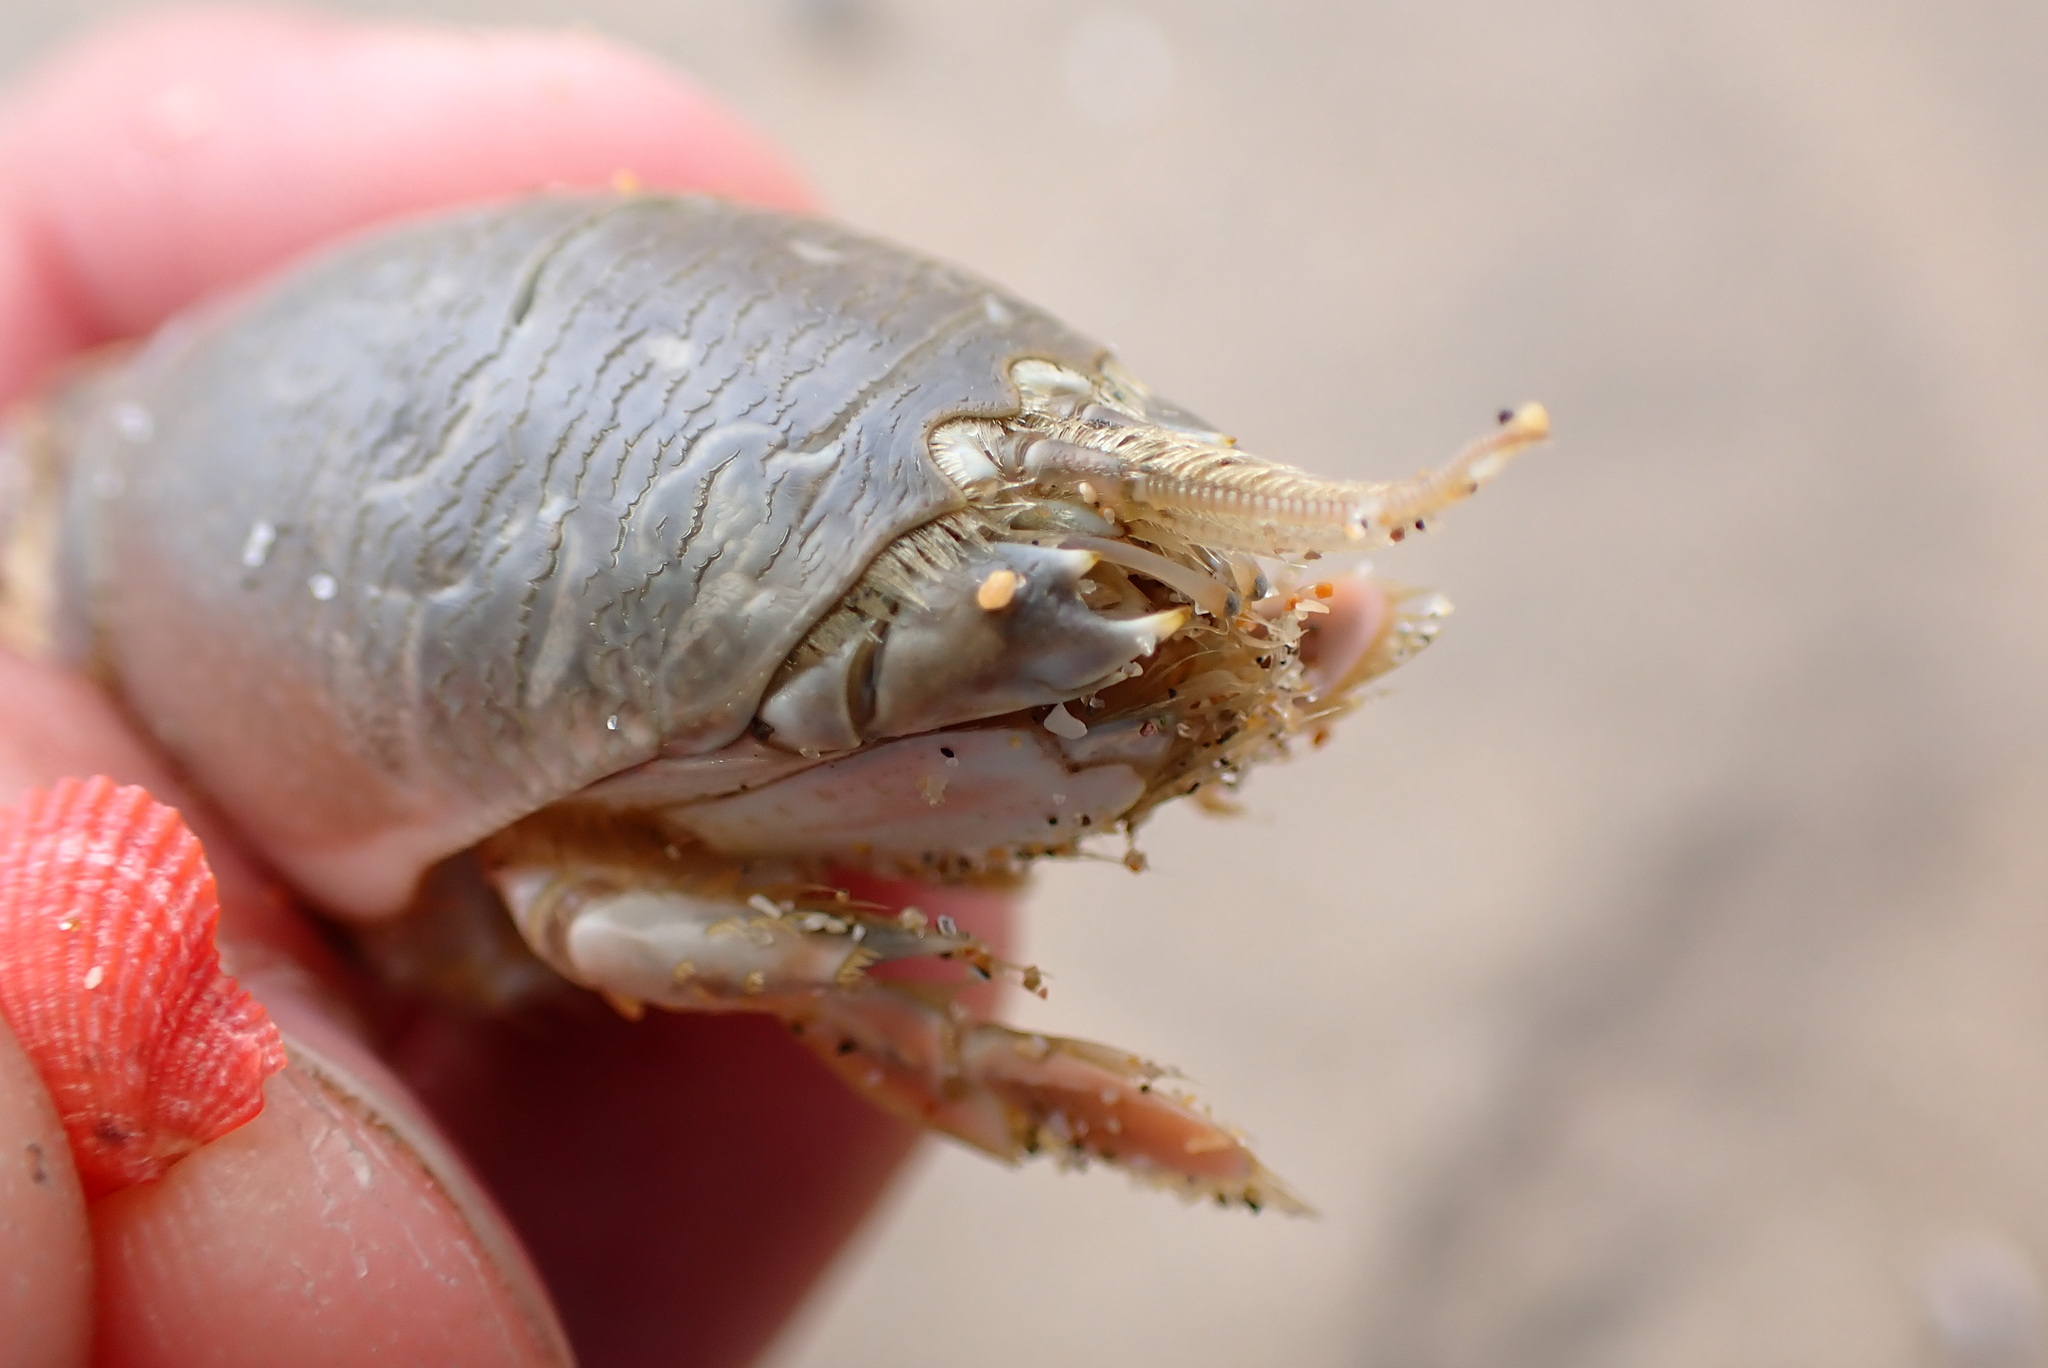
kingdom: Animalia
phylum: Arthropoda
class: Malacostraca
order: Decapoda
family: Hippidae
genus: Emerita
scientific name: Emerita analoga
